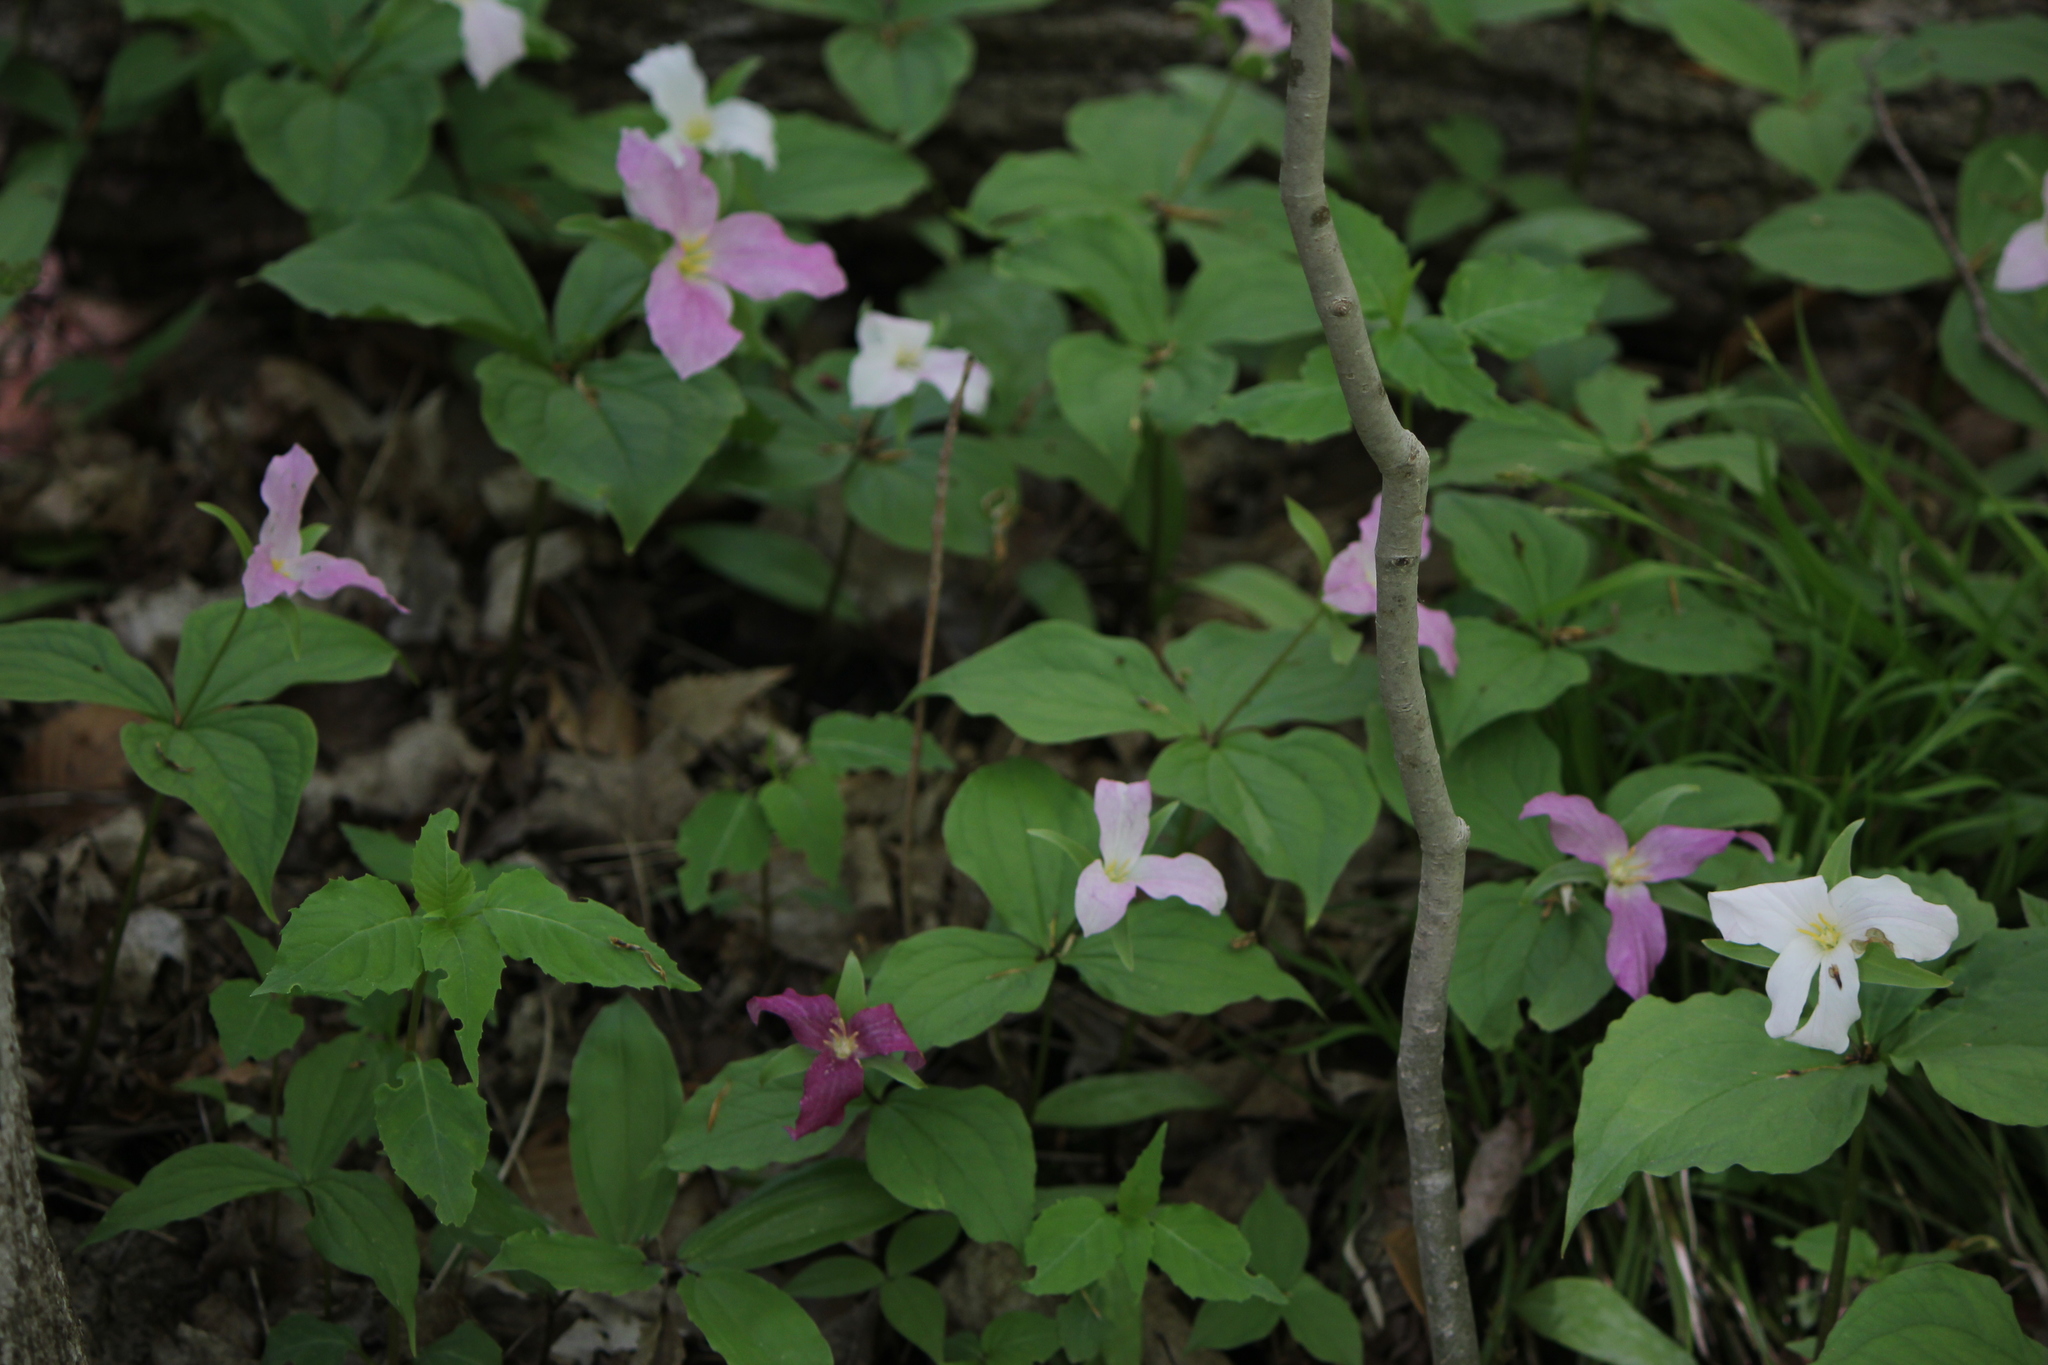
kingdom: Plantae
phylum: Tracheophyta
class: Liliopsida
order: Liliales
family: Melanthiaceae
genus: Trillium
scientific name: Trillium grandiflorum
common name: Great white trillium
